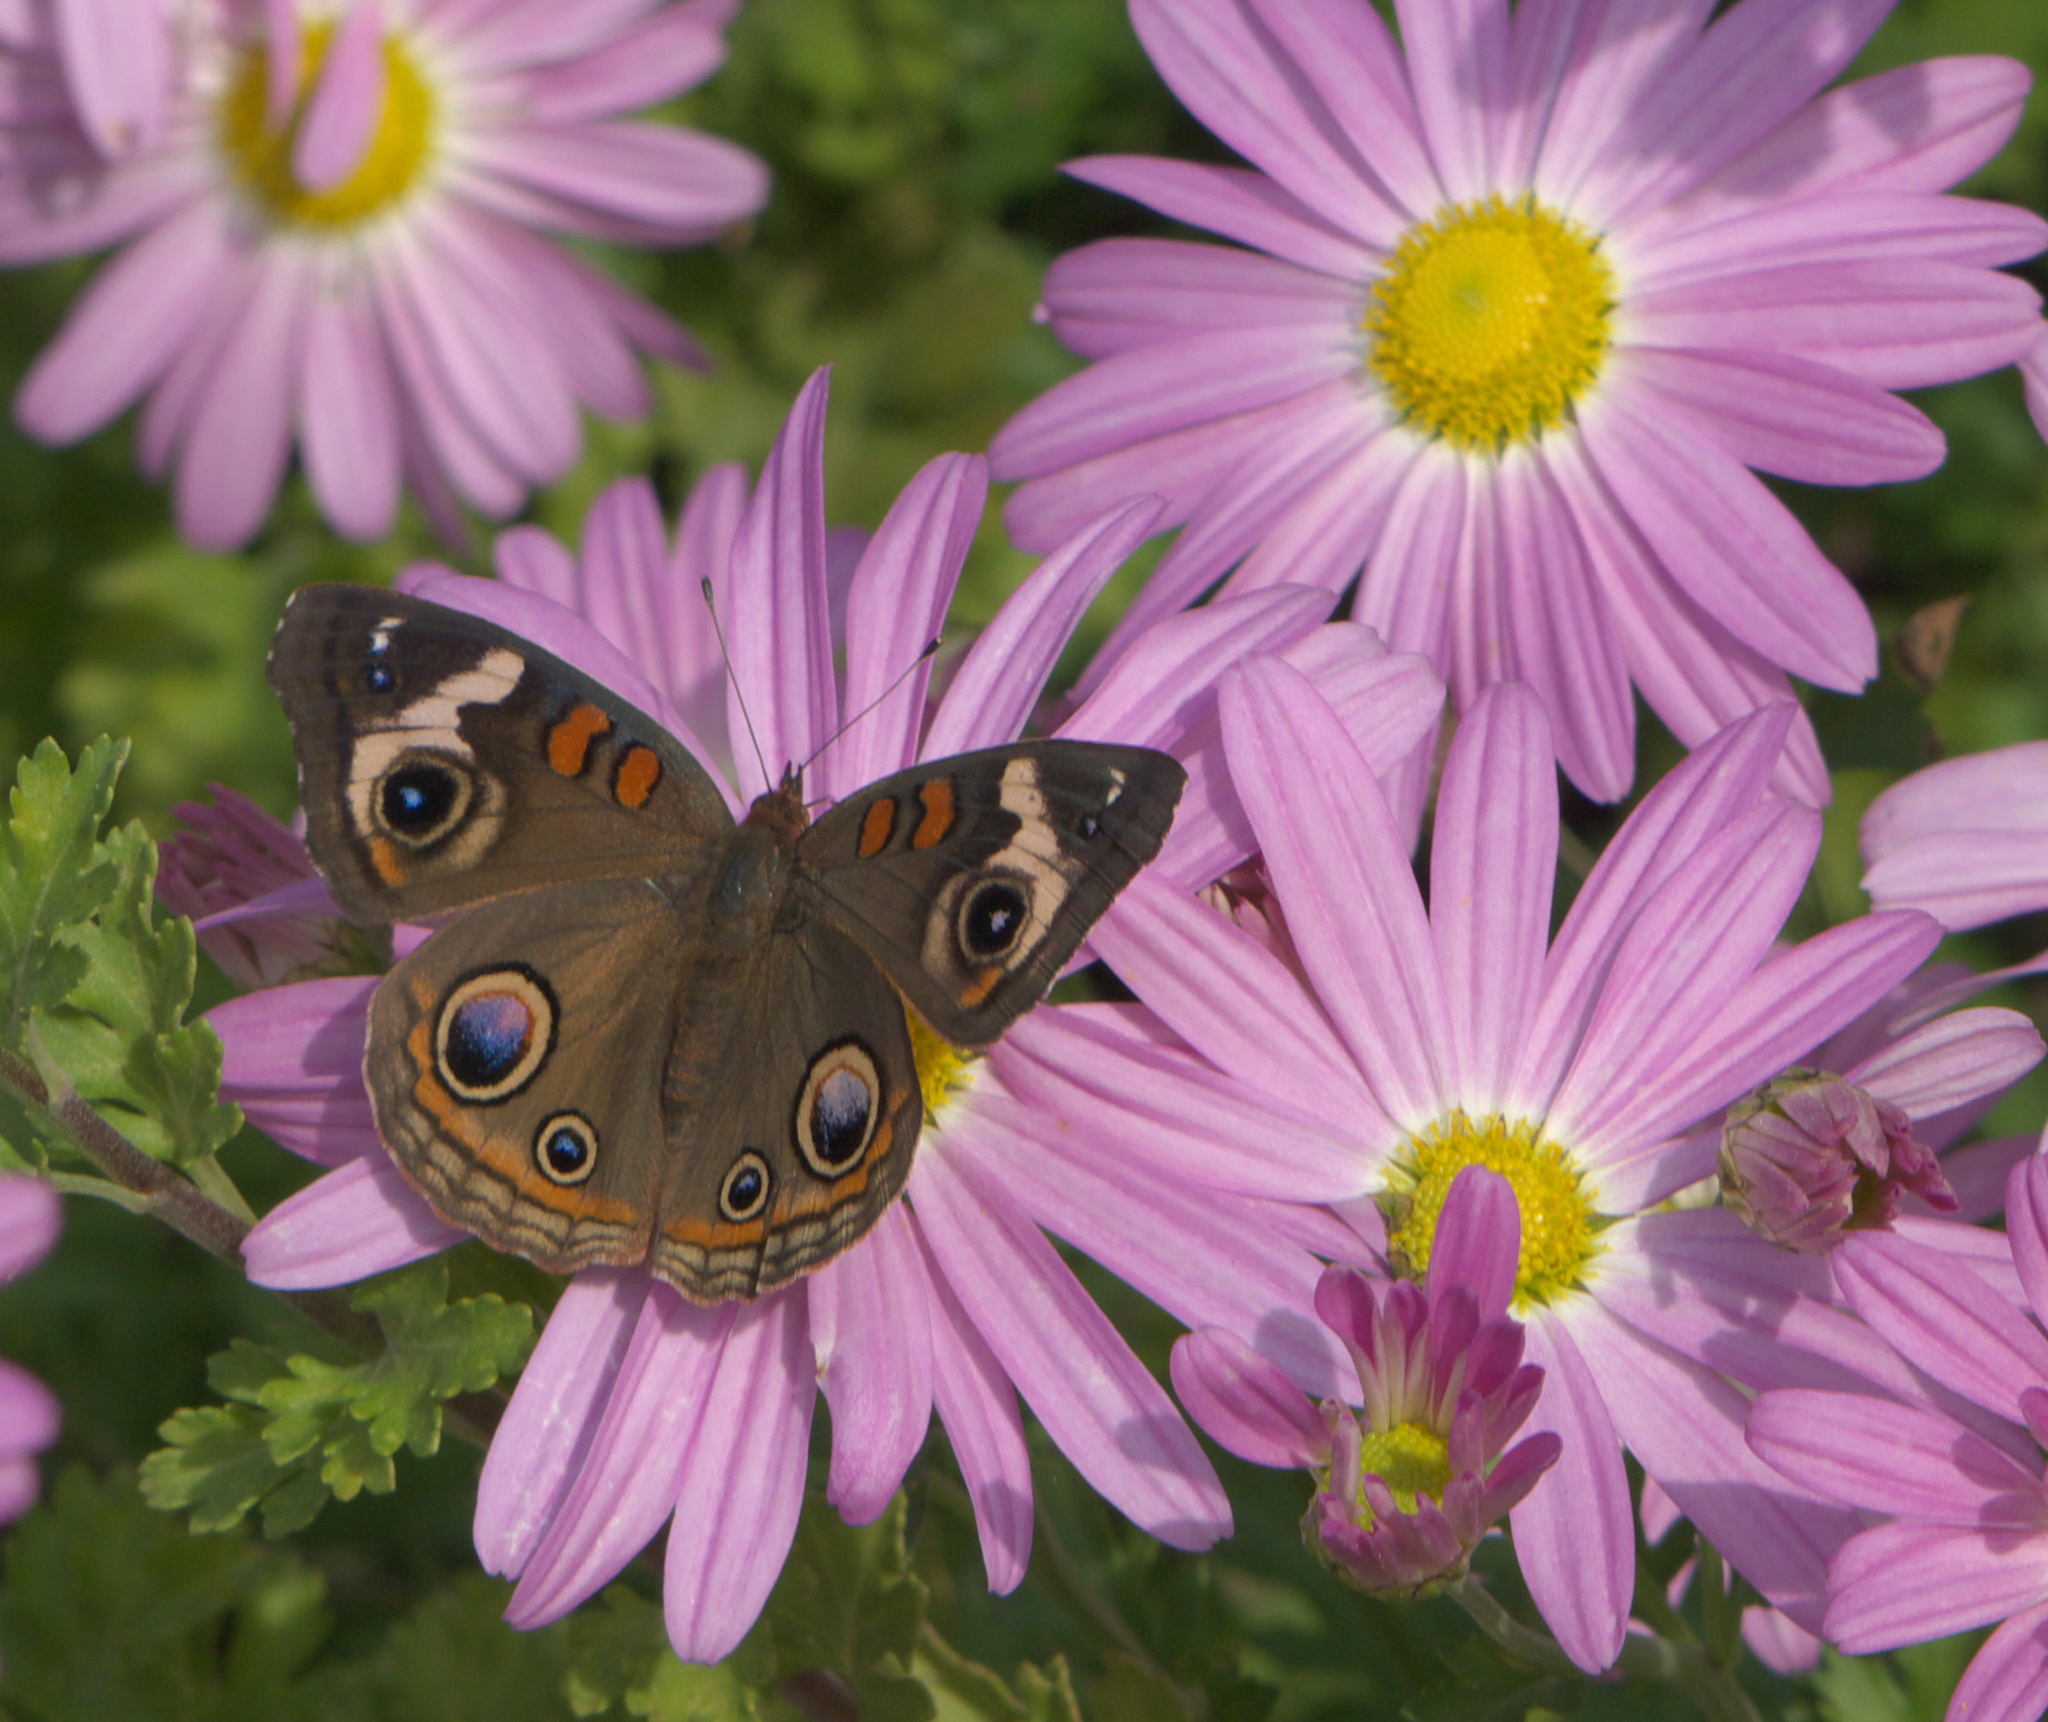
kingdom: Animalia
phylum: Arthropoda
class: Insecta
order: Lepidoptera
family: Nymphalidae
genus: Junonia
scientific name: Junonia coenia
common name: Common buckeye
